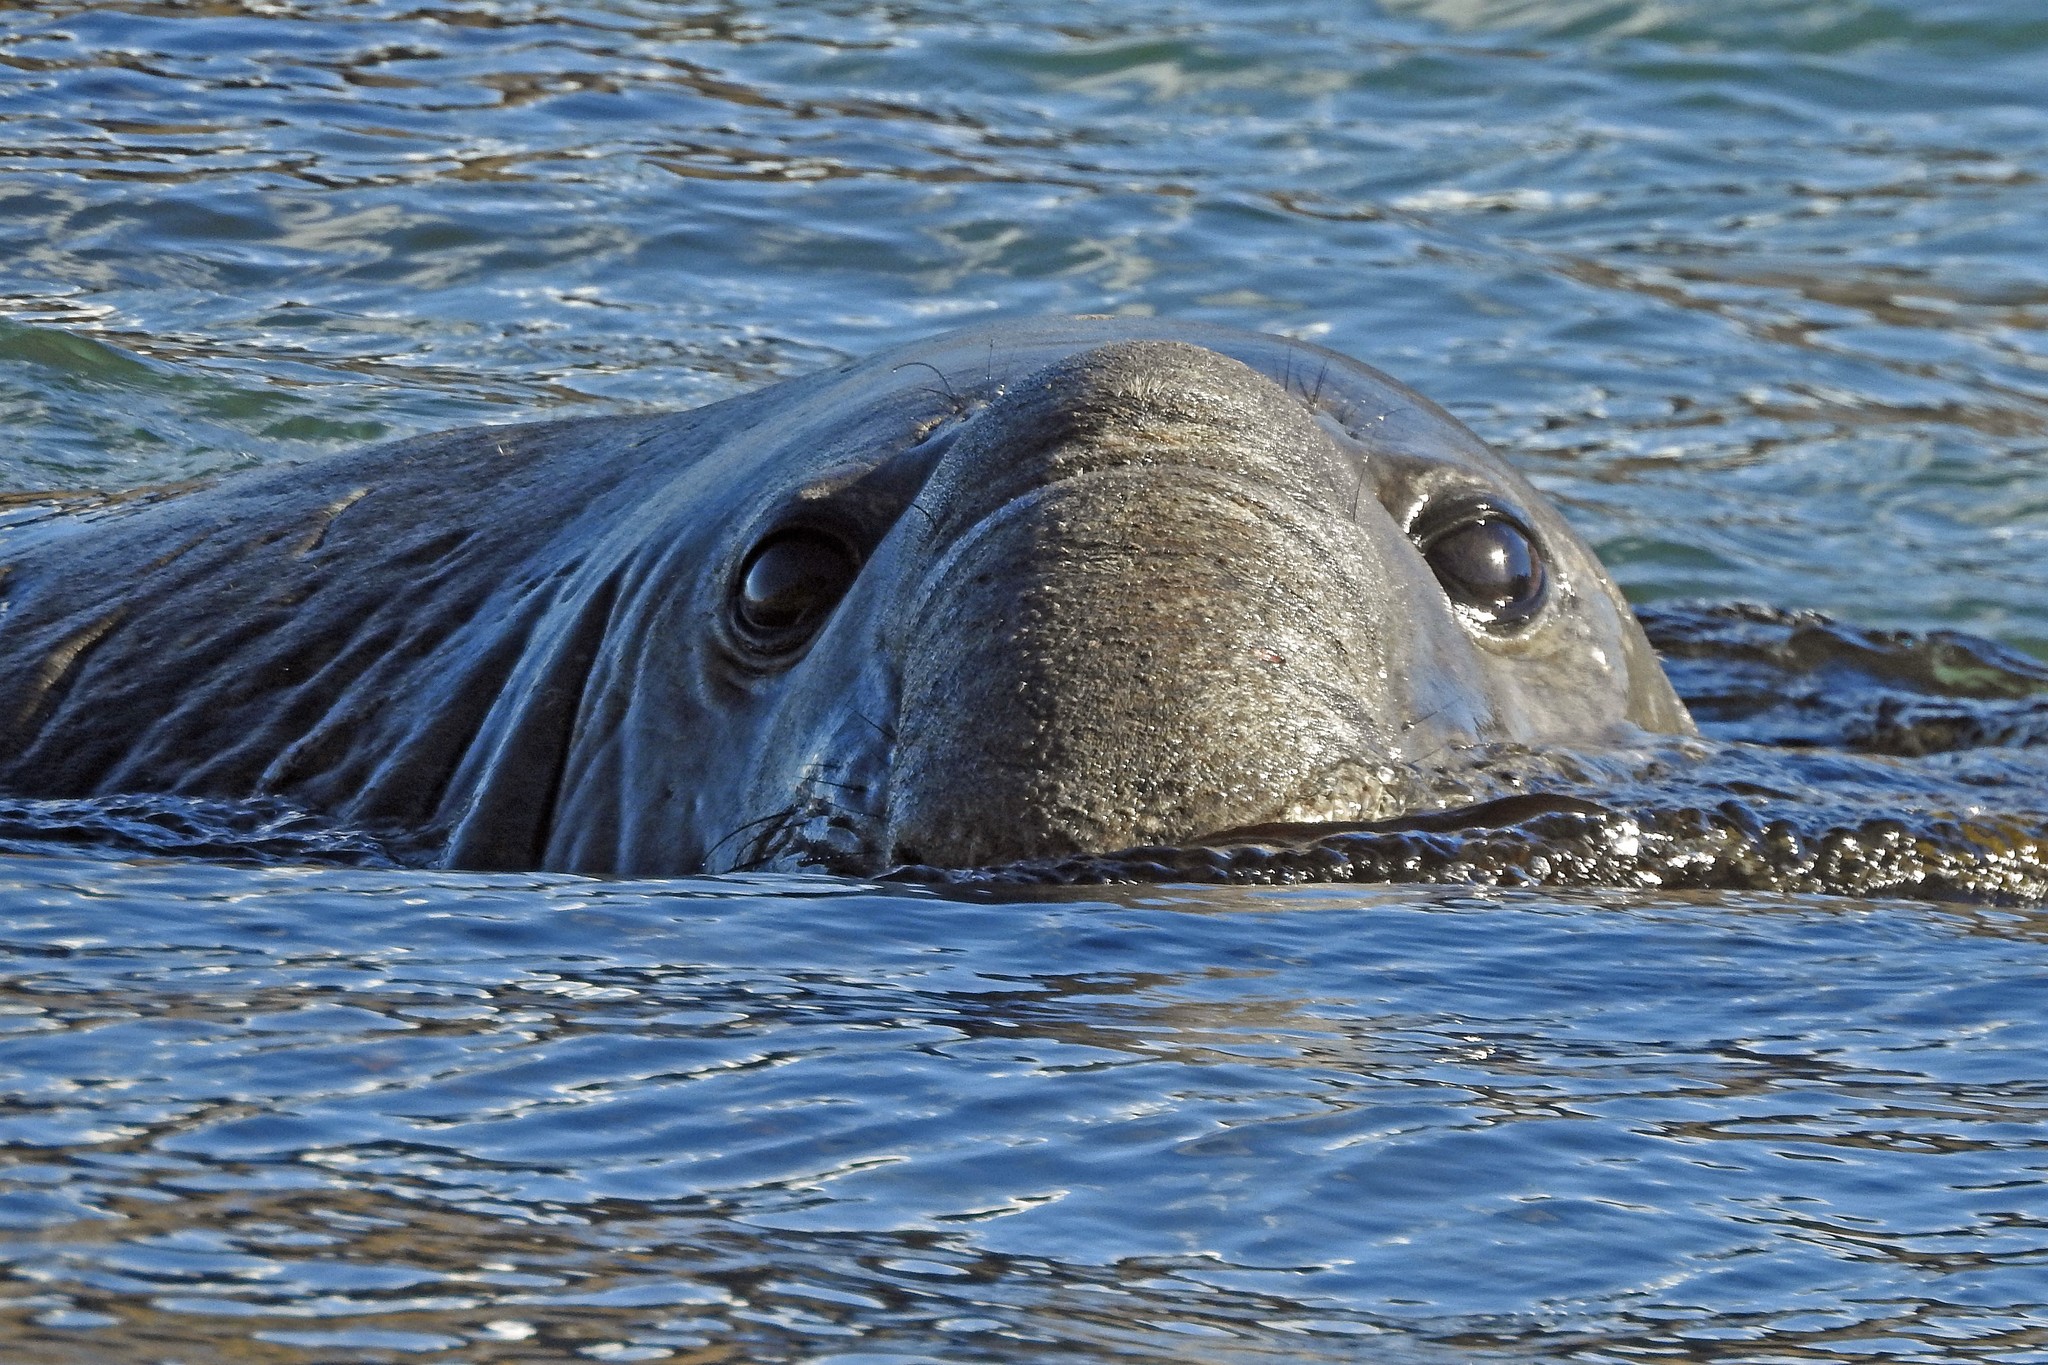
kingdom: Animalia
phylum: Chordata
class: Mammalia
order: Carnivora
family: Phocidae
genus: Mirounga
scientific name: Mirounga leonina
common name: Southern elephant seal
